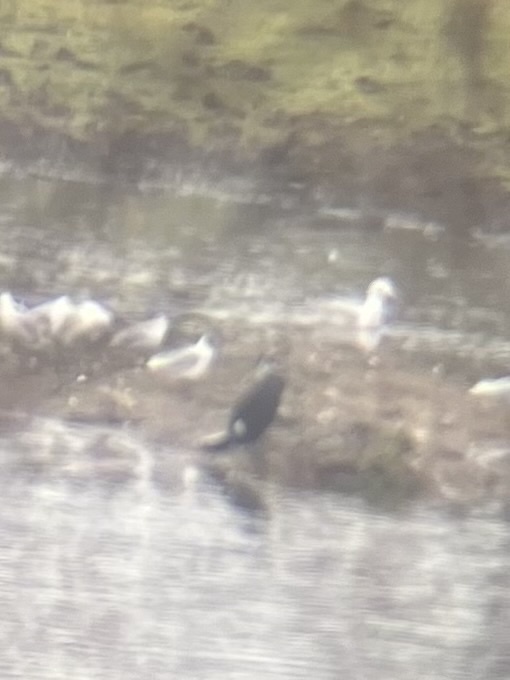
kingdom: Animalia
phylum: Chordata
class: Aves
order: Suliformes
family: Phalacrocoracidae
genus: Phalacrocorax
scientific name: Phalacrocorax carbo
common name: Great cormorant
